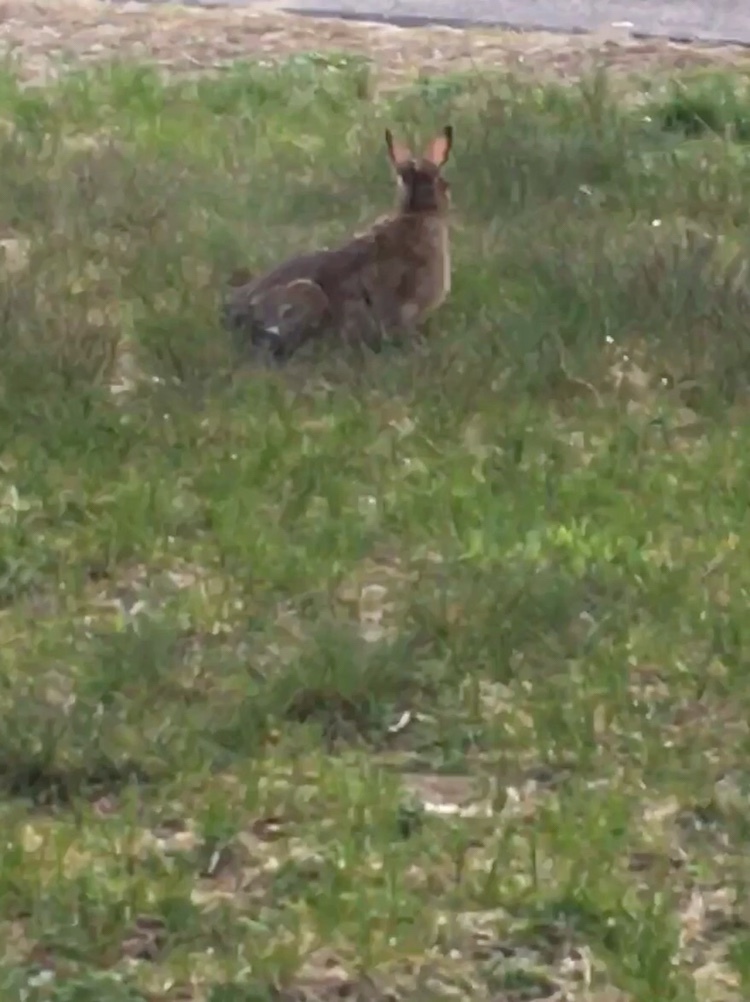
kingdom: Animalia
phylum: Chordata
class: Mammalia
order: Lagomorpha
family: Leporidae
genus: Lepus
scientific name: Lepus americanus
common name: Snowshoe hare
